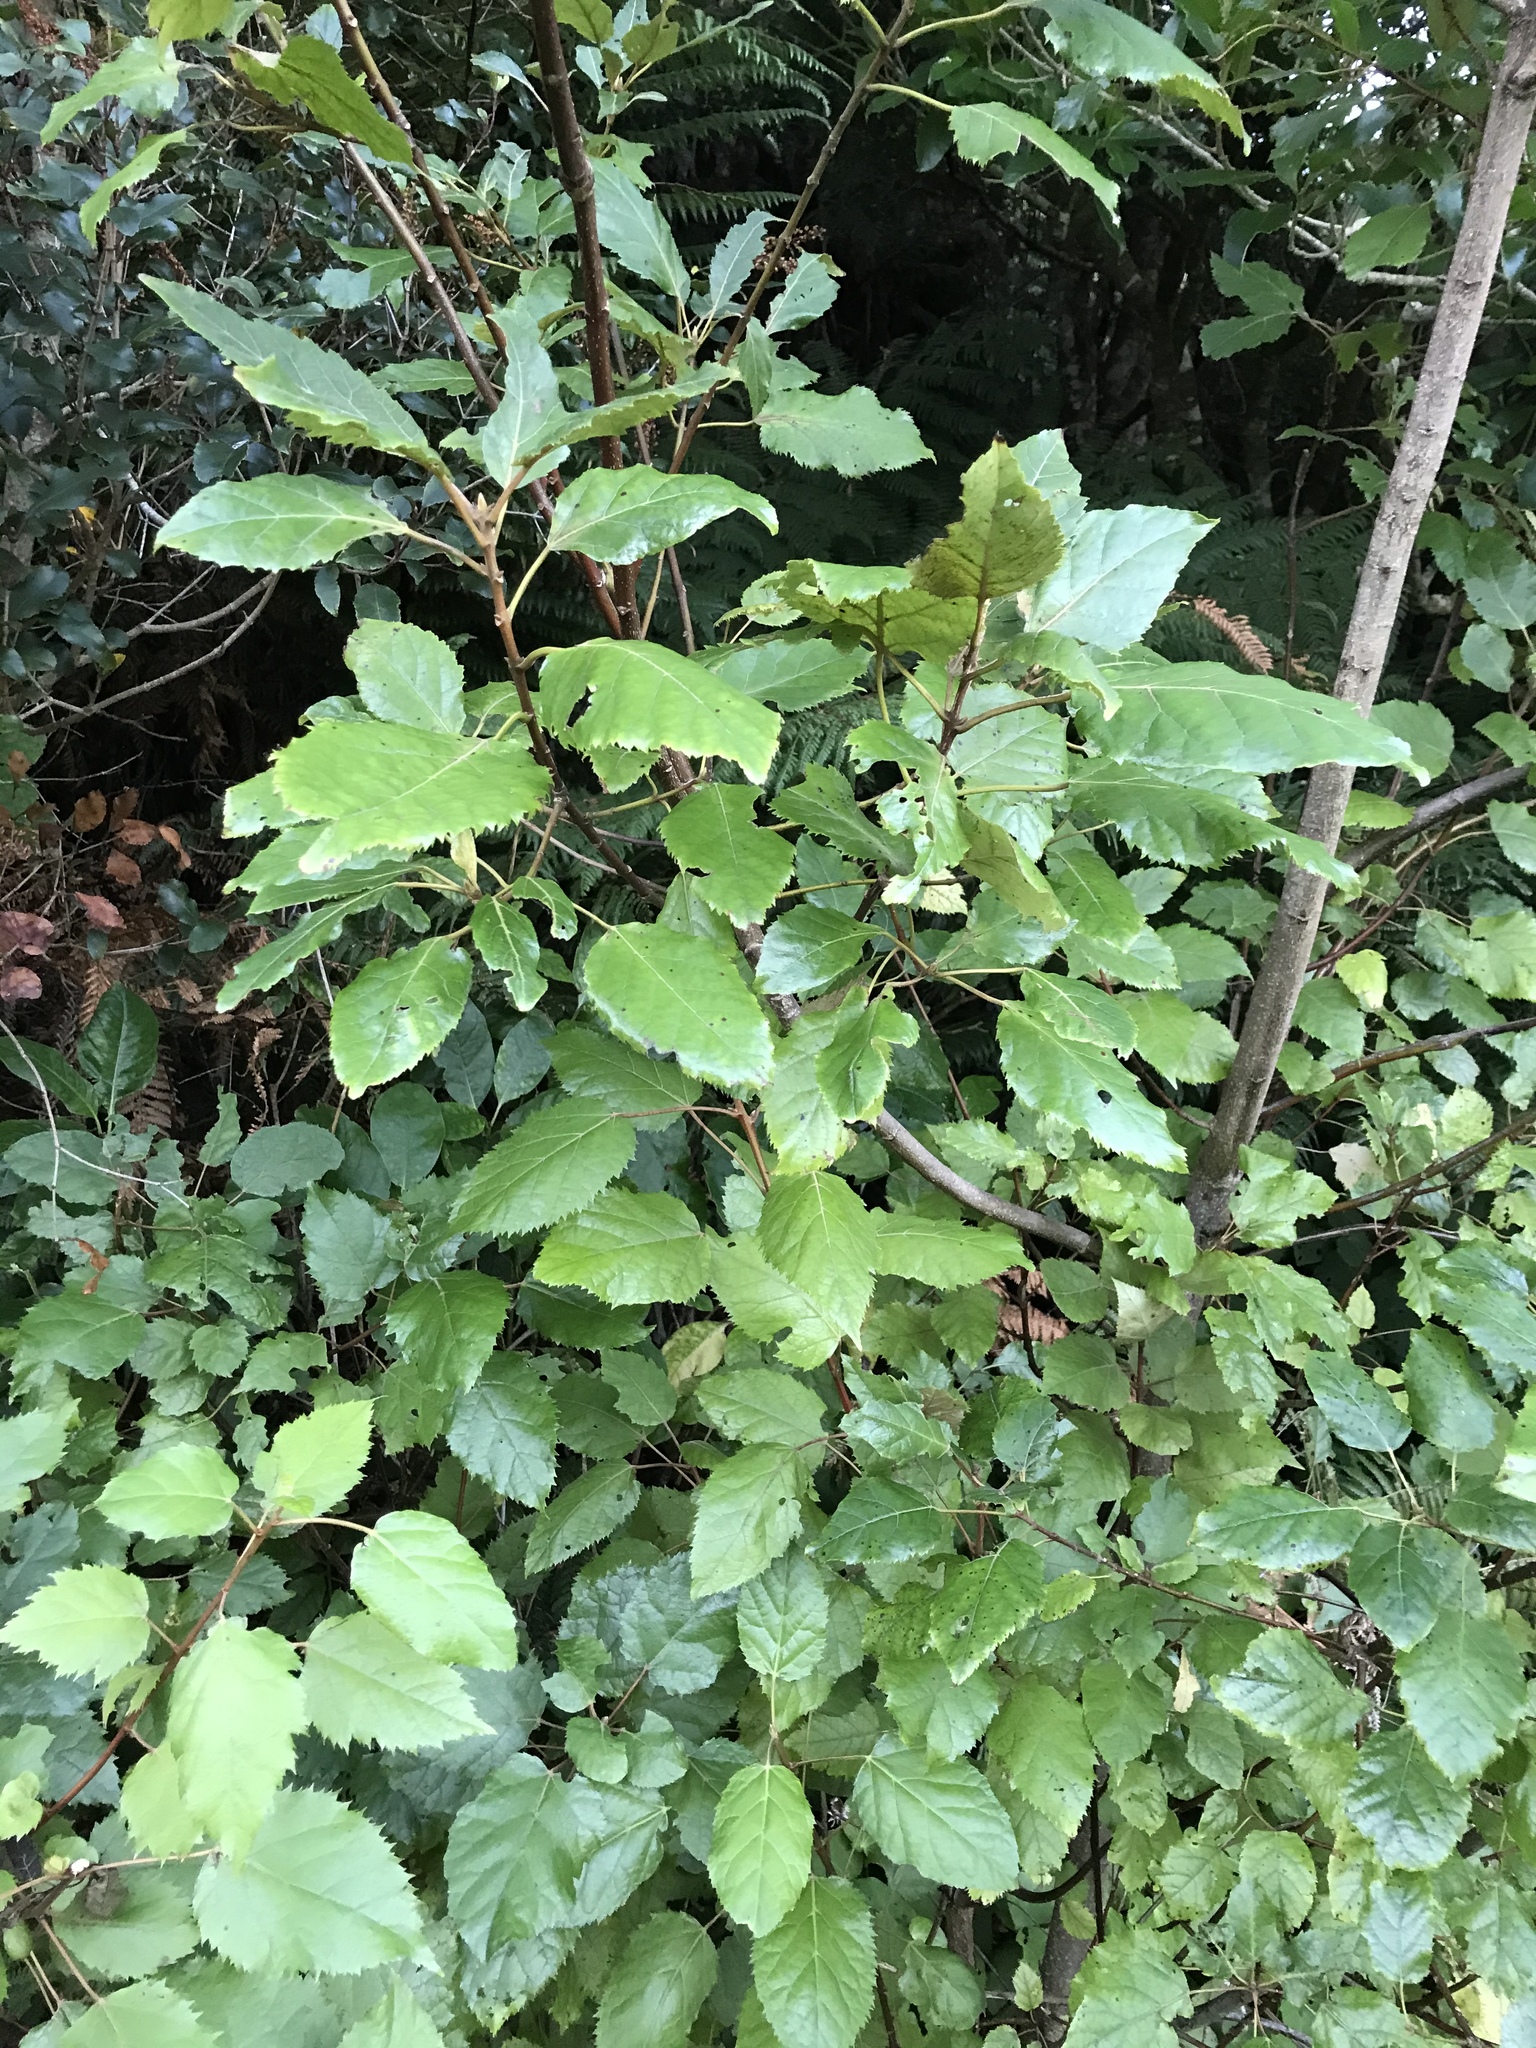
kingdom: Plantae
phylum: Tracheophyta
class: Magnoliopsida
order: Oxalidales
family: Elaeocarpaceae
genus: Aristotelia
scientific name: Aristotelia serrata
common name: New zealand wineberry
